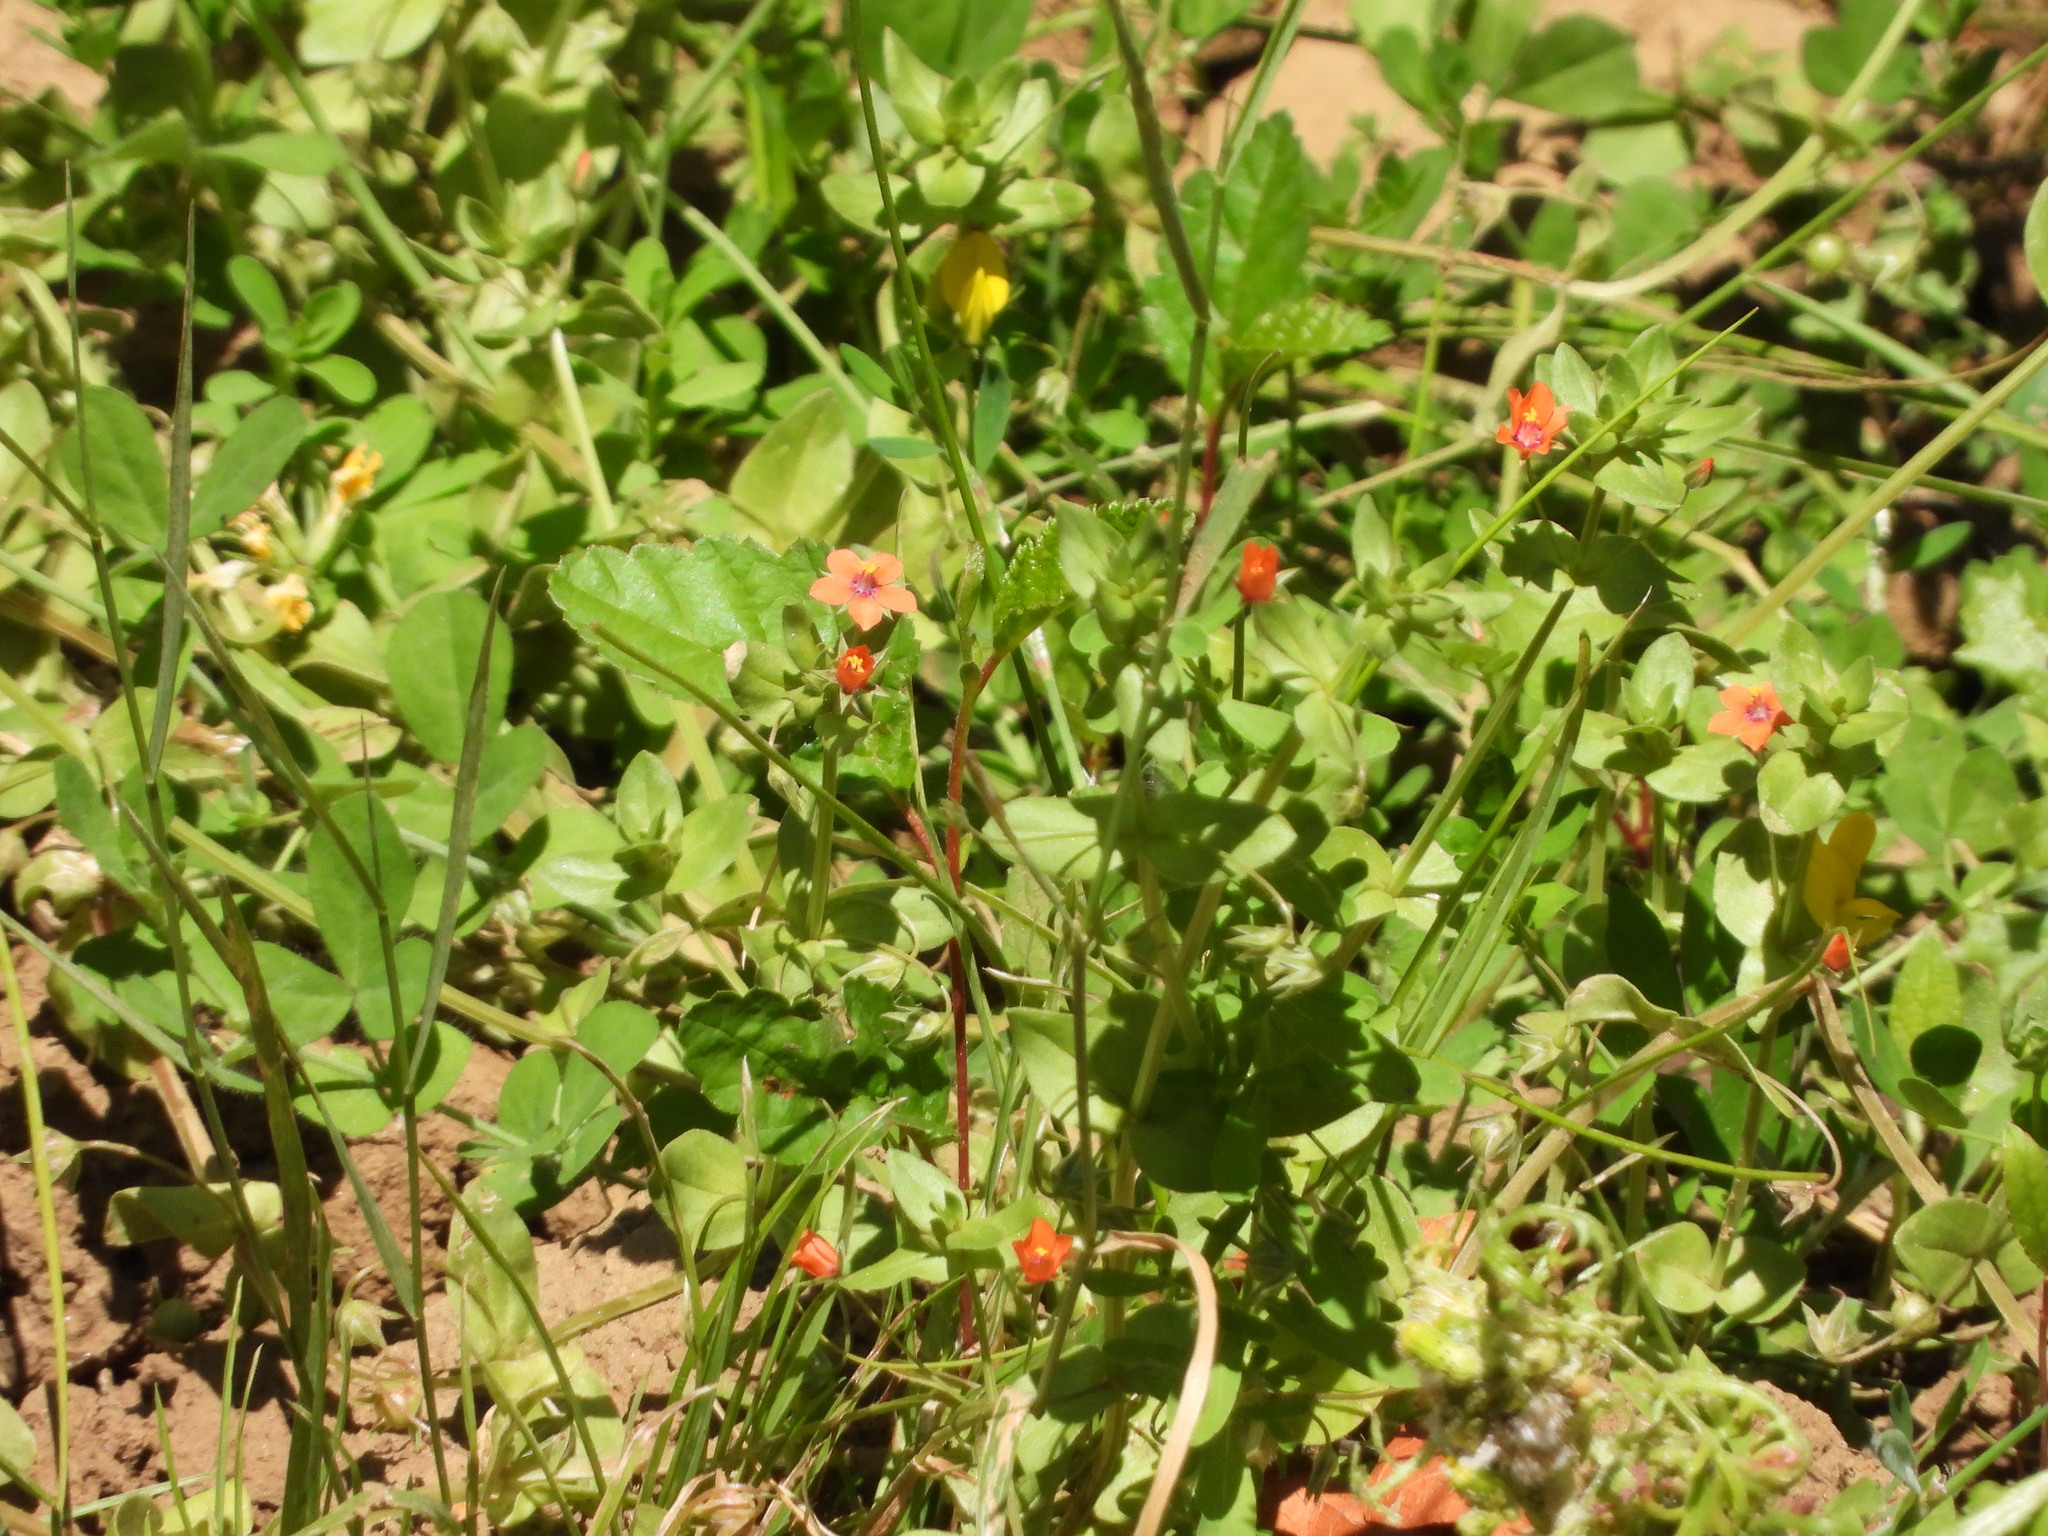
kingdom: Plantae
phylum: Tracheophyta
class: Magnoliopsida
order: Ericales
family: Primulaceae
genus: Lysimachia
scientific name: Lysimachia arvensis
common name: Scarlet pimpernel
